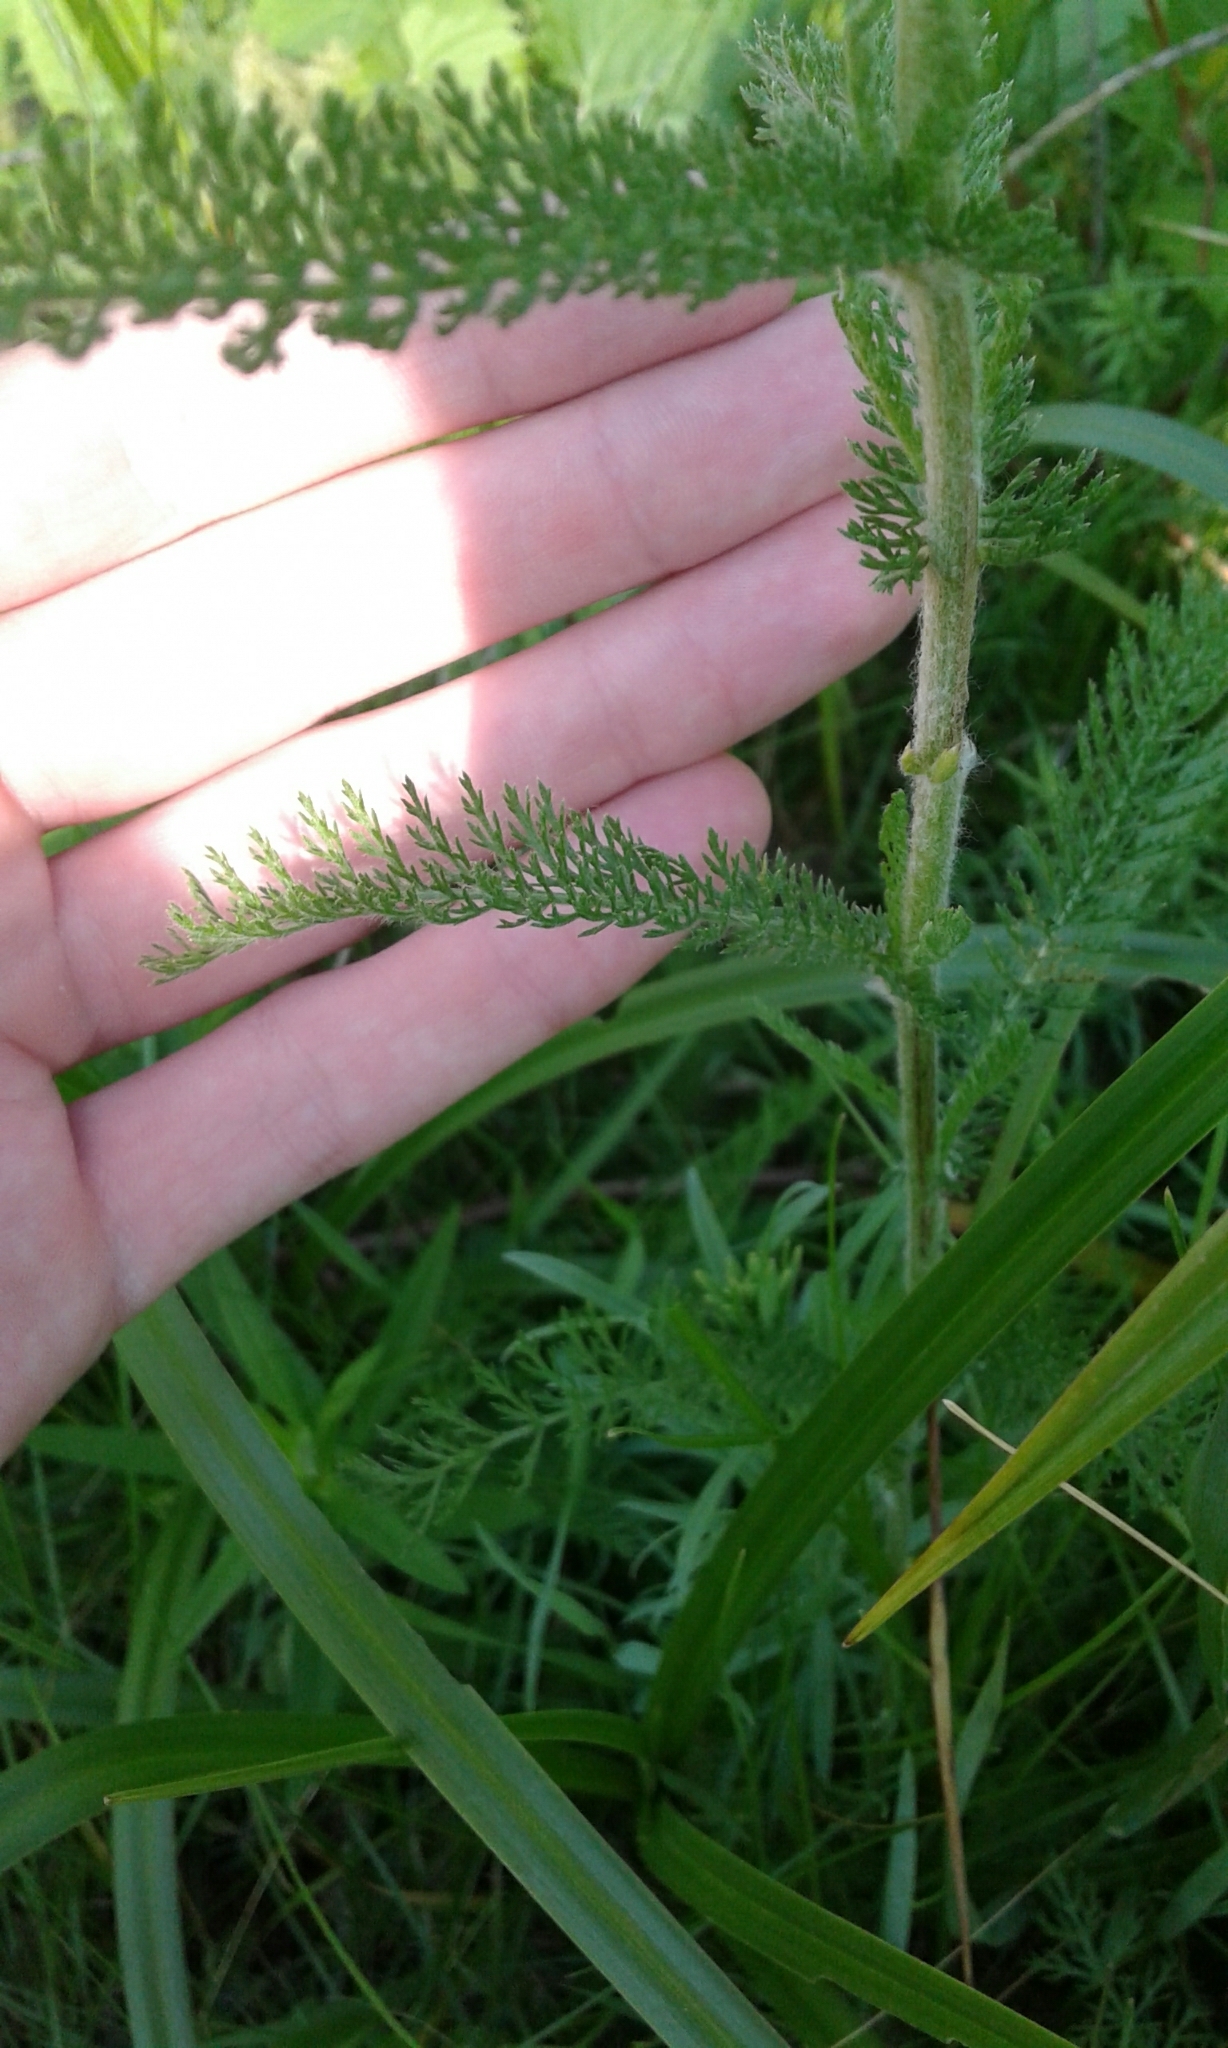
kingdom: Plantae
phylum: Tracheophyta
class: Magnoliopsida
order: Asterales
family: Asteraceae
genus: Achillea
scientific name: Achillea millefolium
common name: Yarrow
